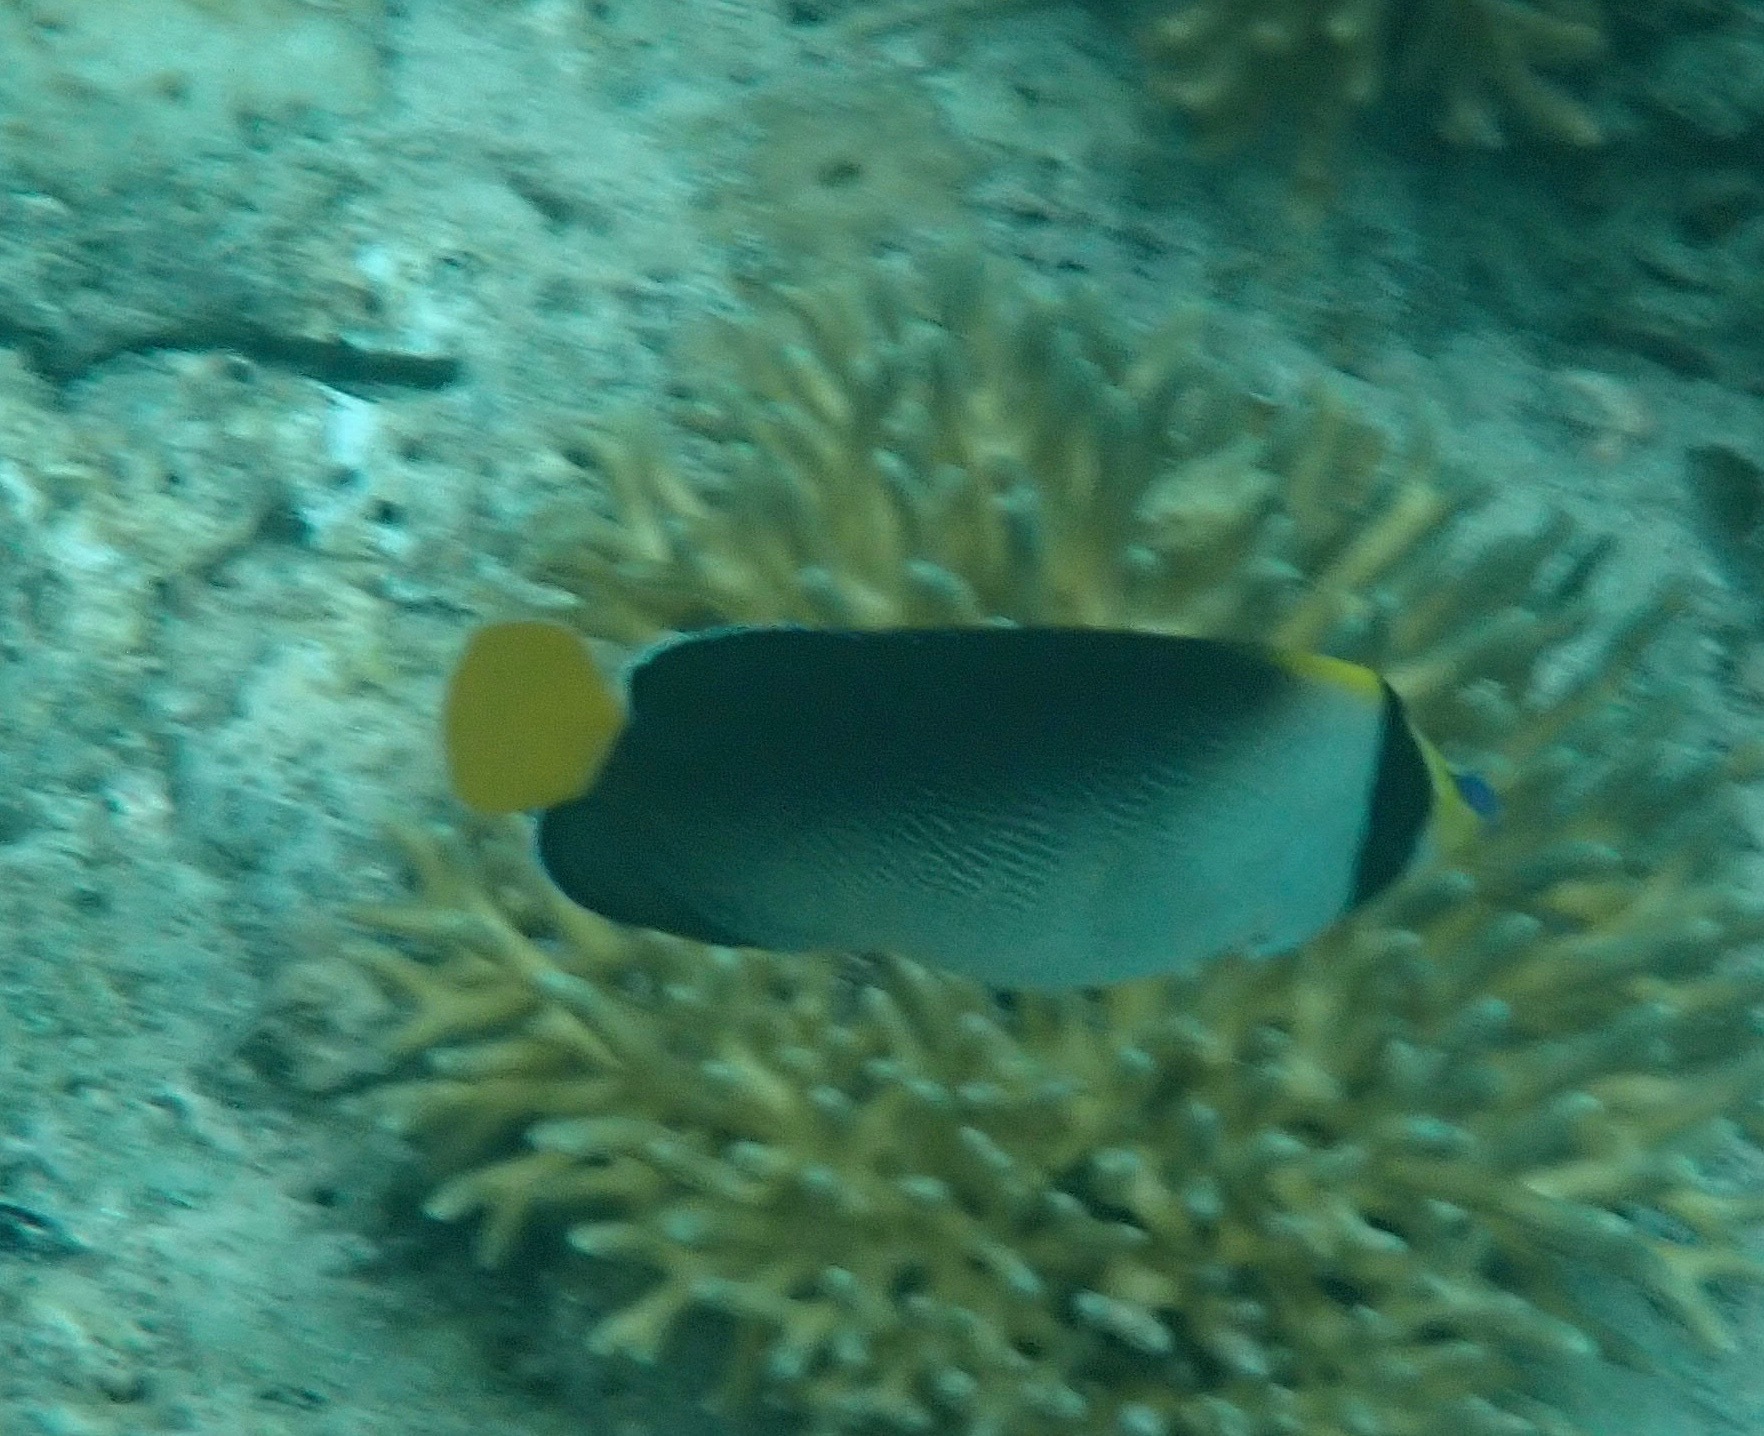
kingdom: Animalia
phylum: Chordata
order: Perciformes
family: Pomacanthidae
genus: Chaetodontoplus
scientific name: Chaetodontoplus mesoleucus
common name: Vermiculated angelfish
